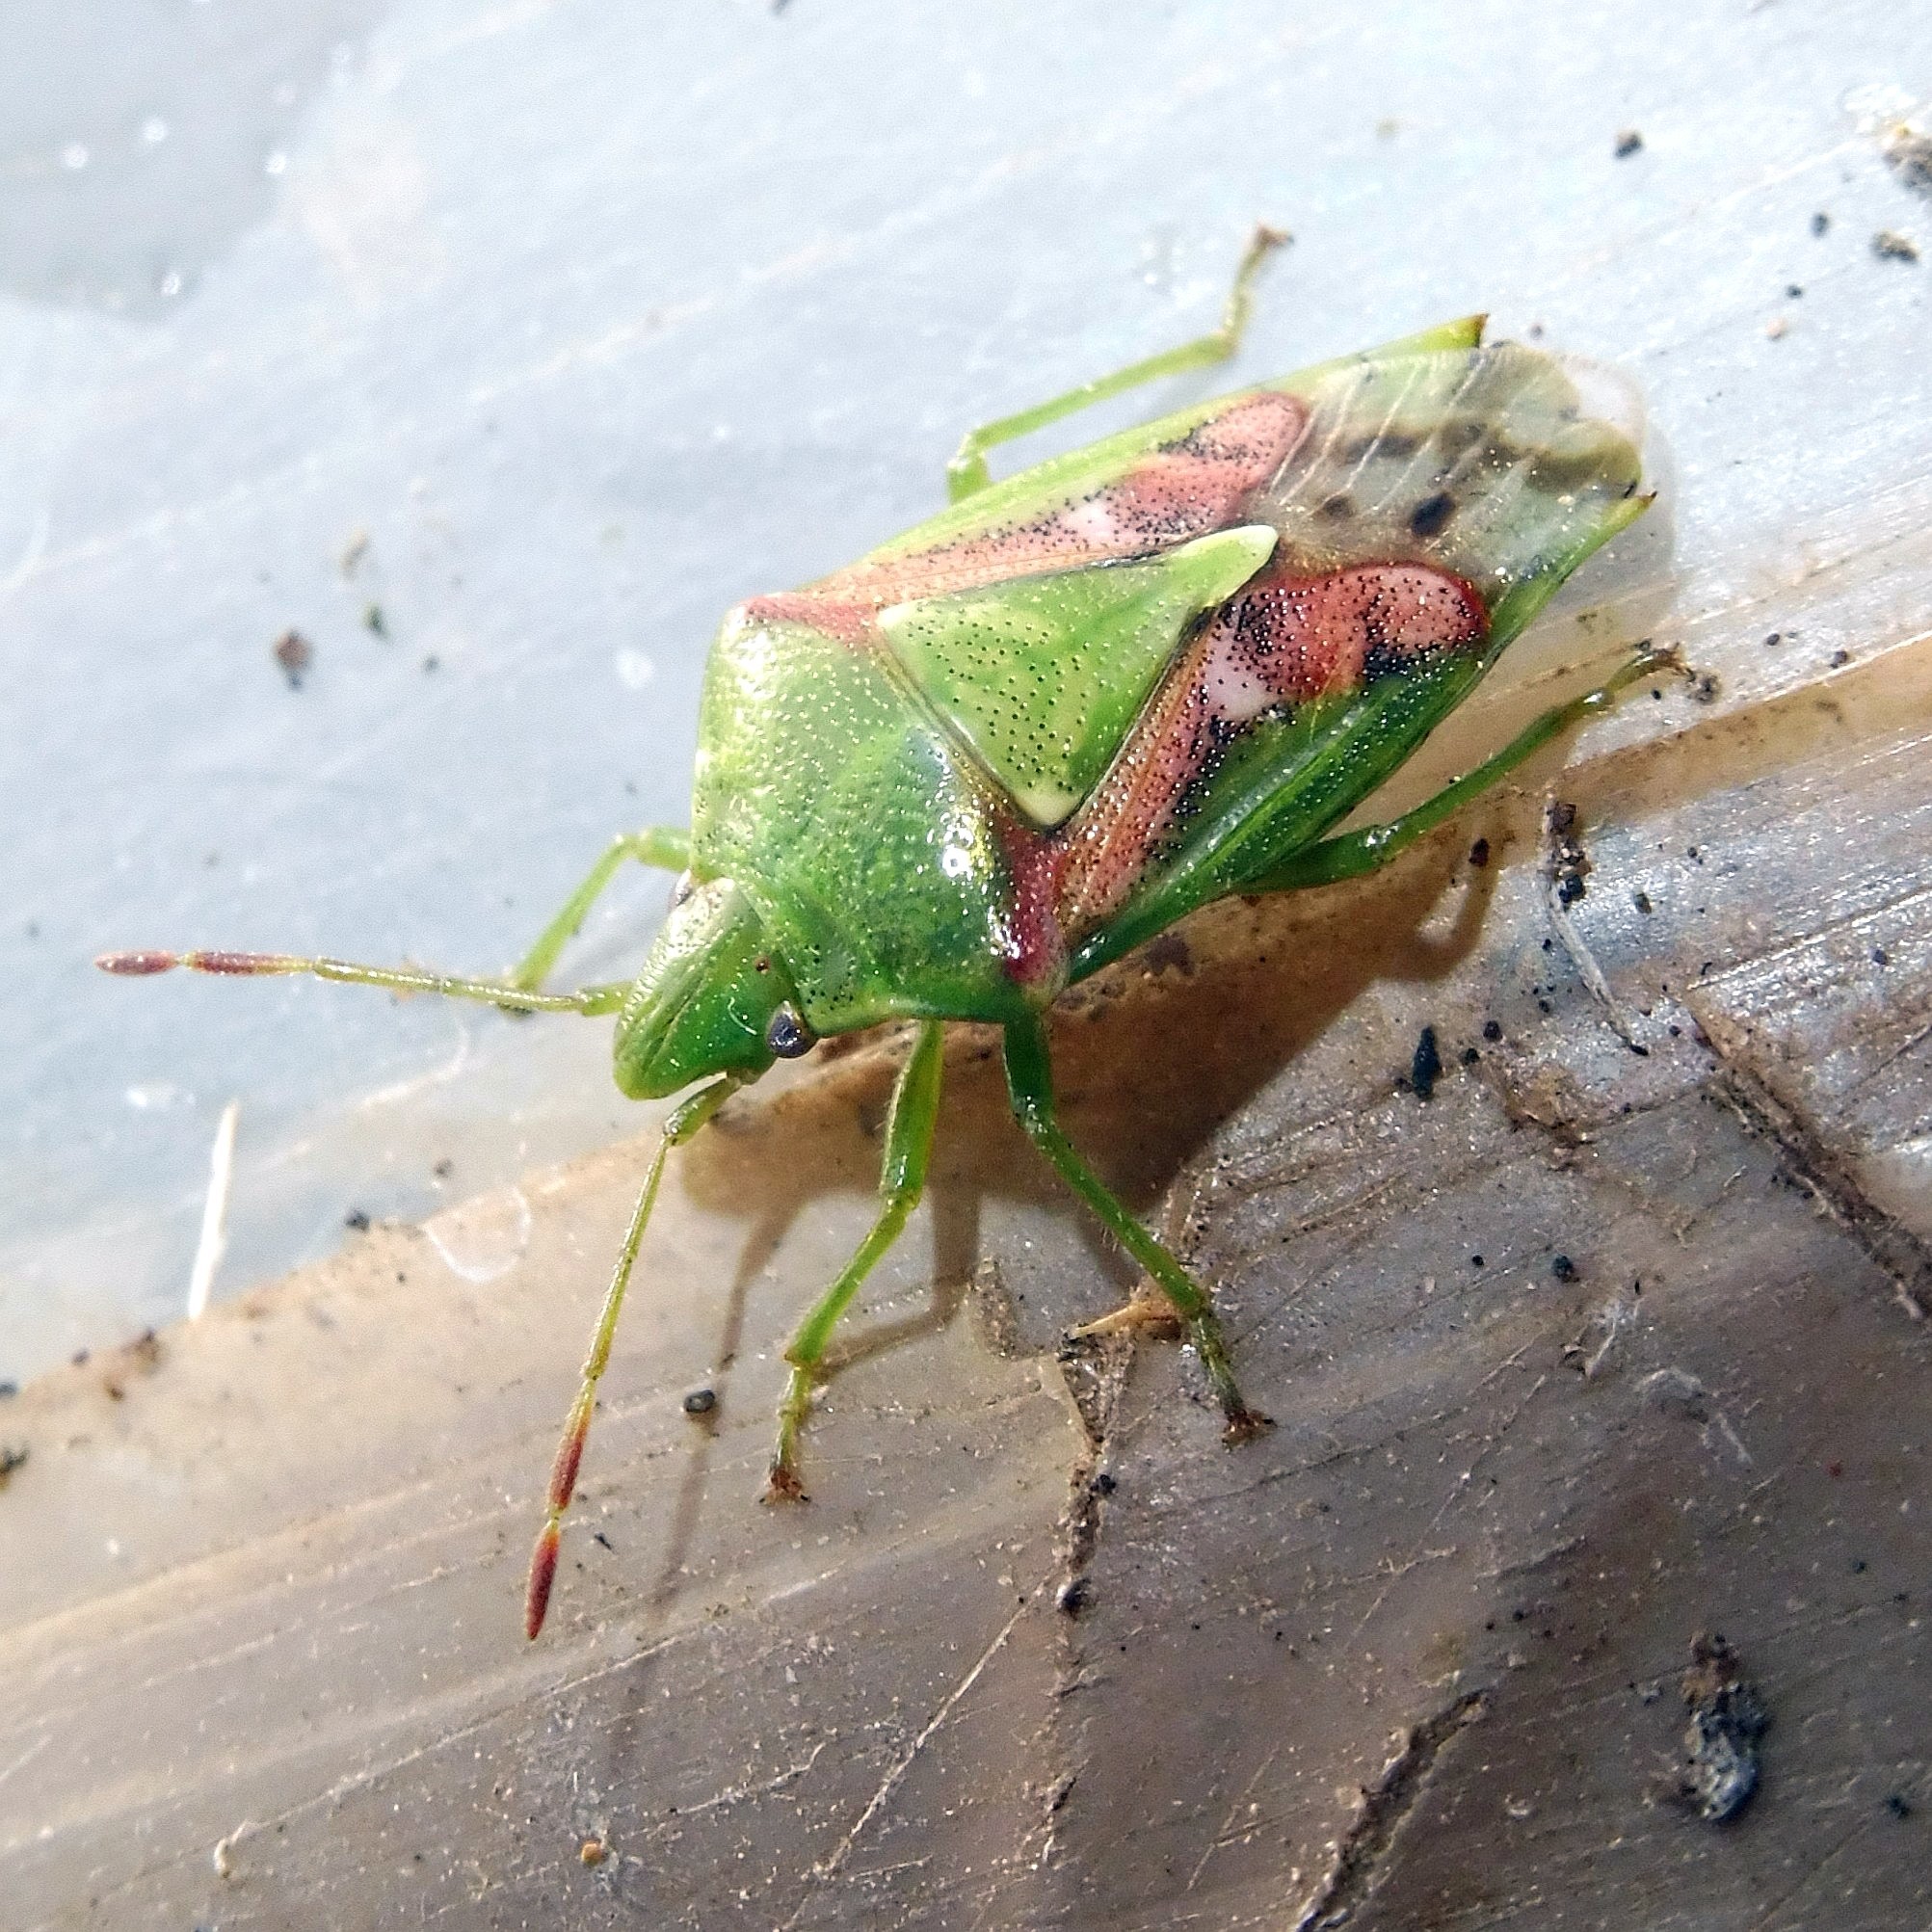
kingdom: Animalia
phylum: Arthropoda
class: Insecta
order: Hemiptera
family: Acanthosomatidae
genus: Cyphostethus
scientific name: Cyphostethus tristriatus
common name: Juniper shieldbug
